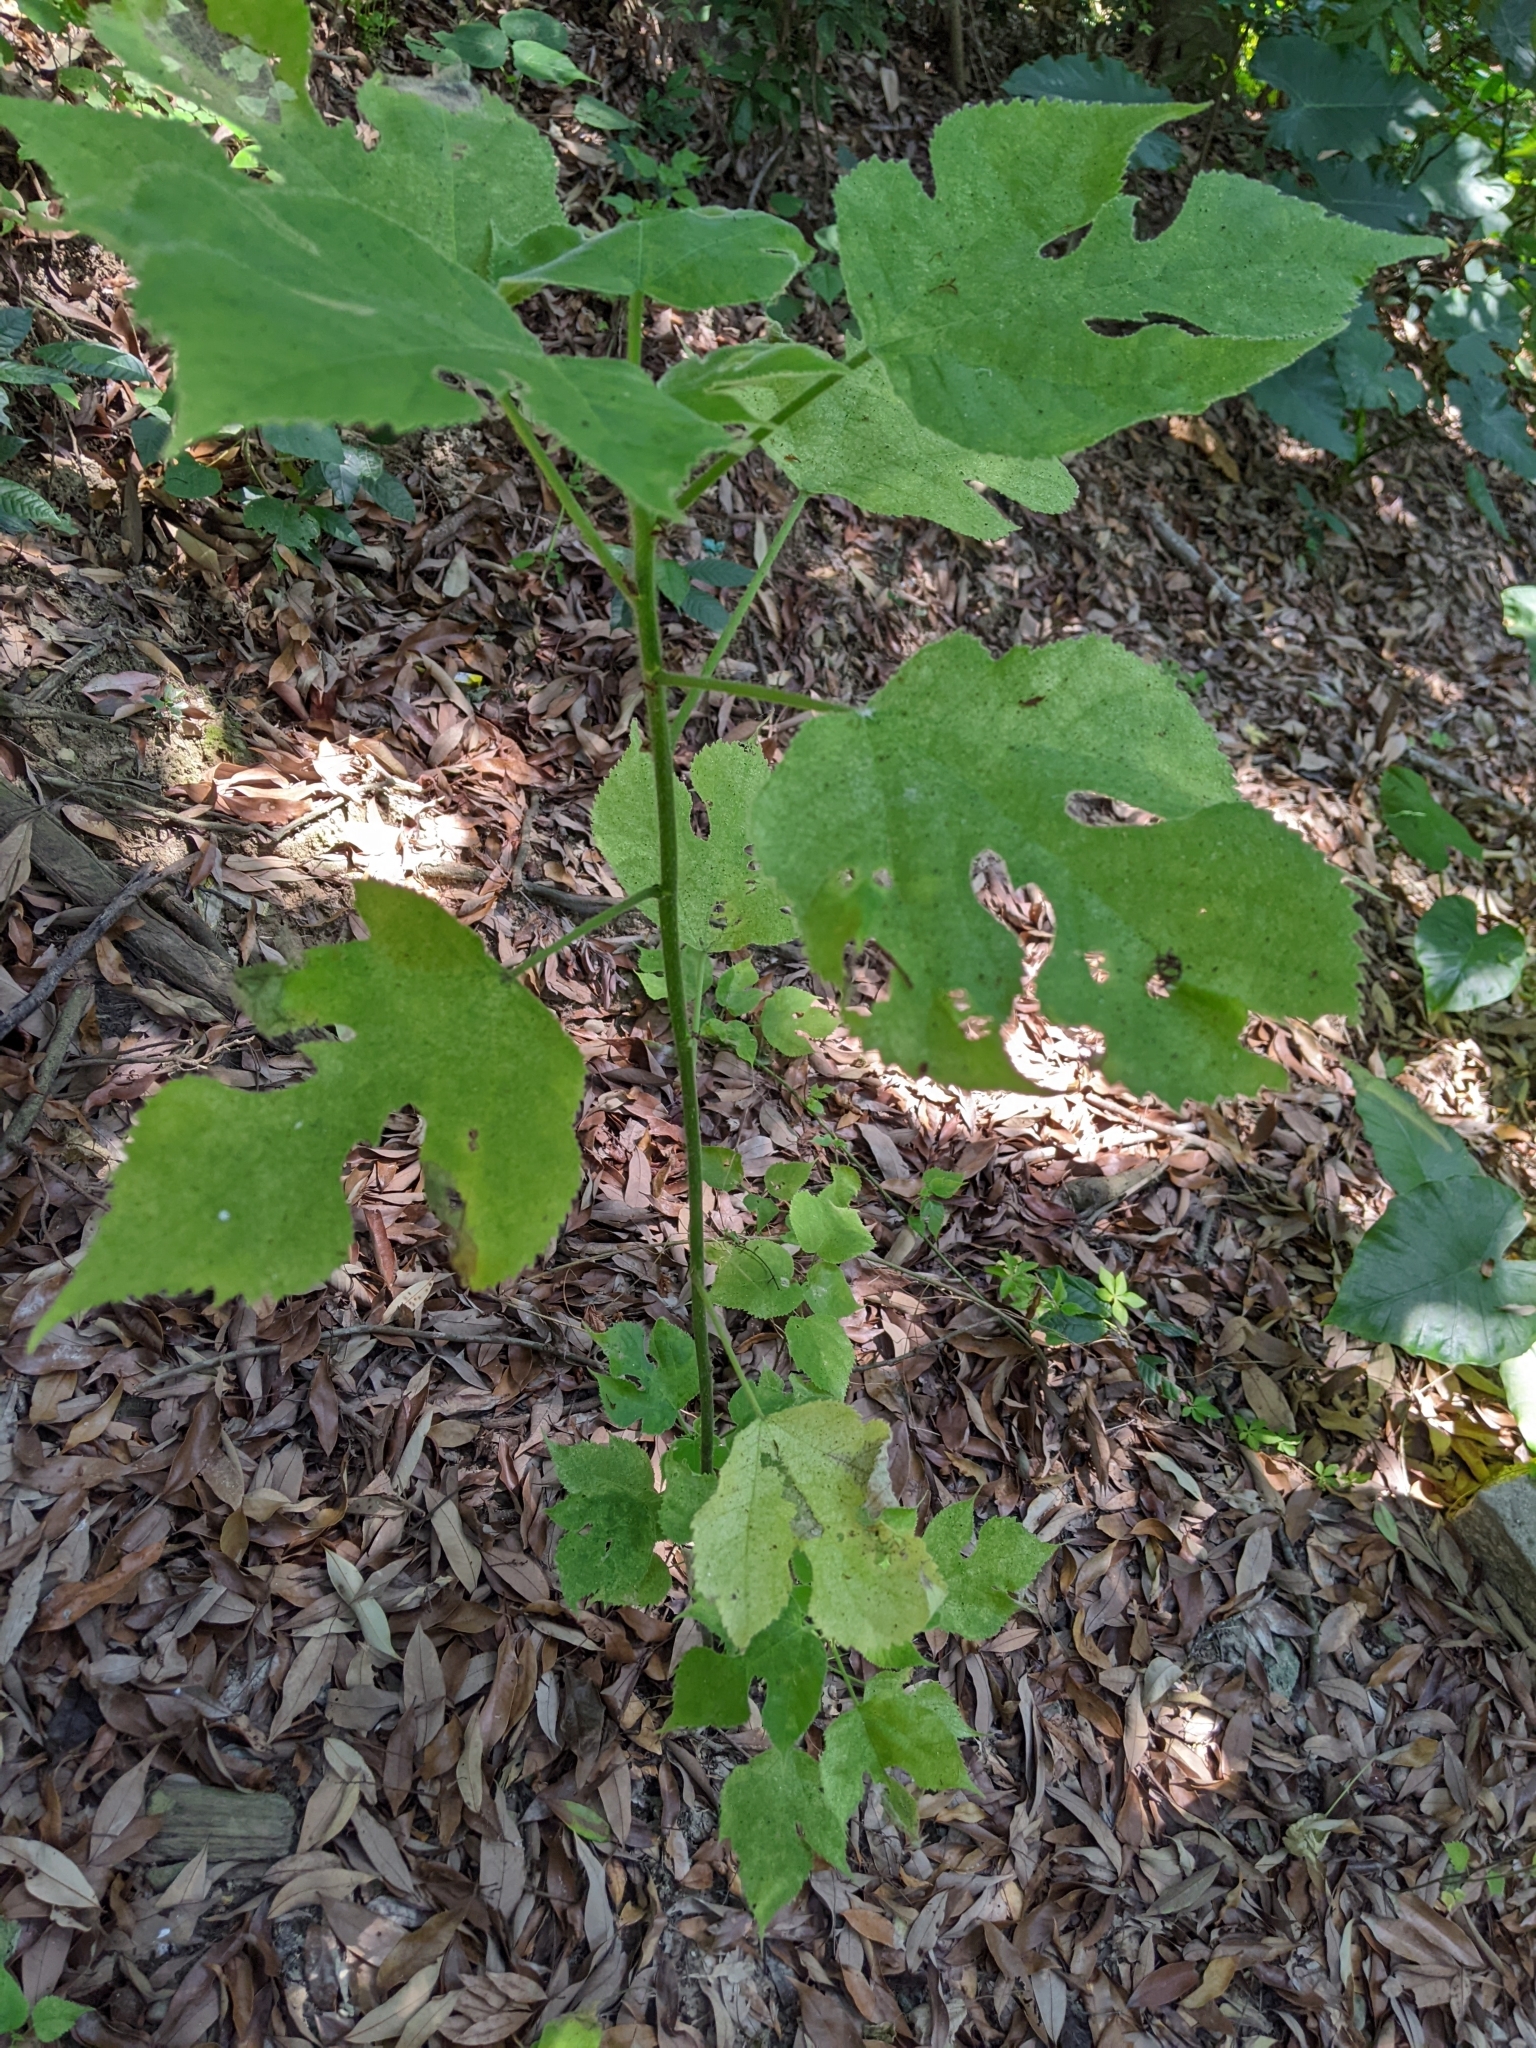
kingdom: Plantae
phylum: Tracheophyta
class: Magnoliopsida
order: Rosales
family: Moraceae
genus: Broussonetia
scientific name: Broussonetia papyrifera
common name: Paper mulberry
